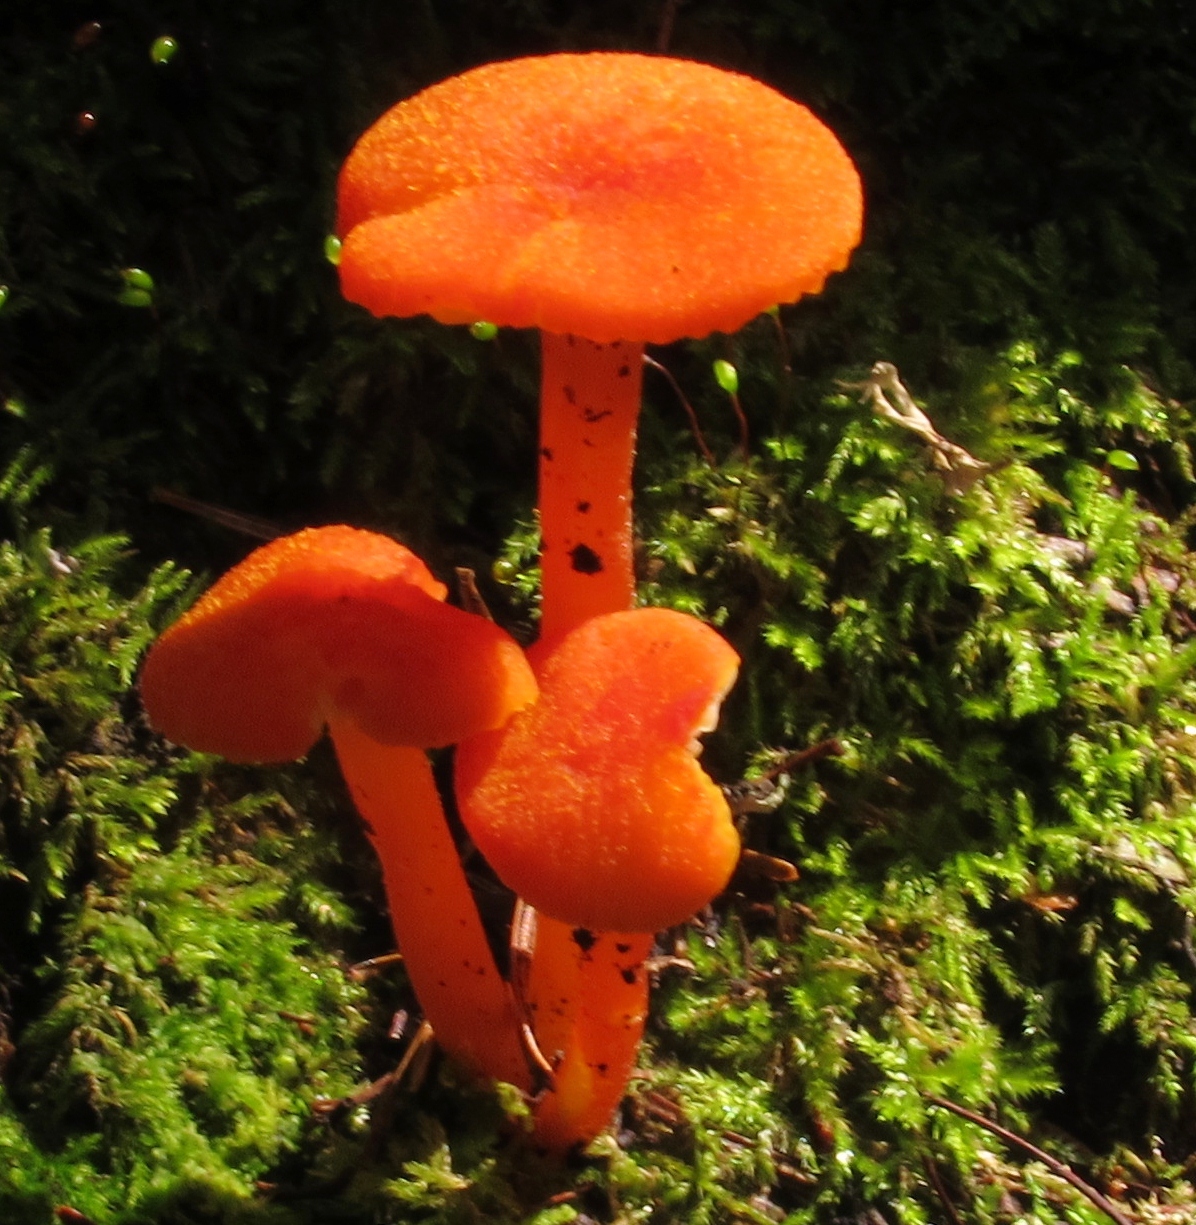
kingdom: Fungi
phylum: Basidiomycota
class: Agaricomycetes
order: Agaricales
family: Hygrophoraceae
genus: Hygrocybe
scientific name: Hygrocybe miniata
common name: Vermilion waxcap
